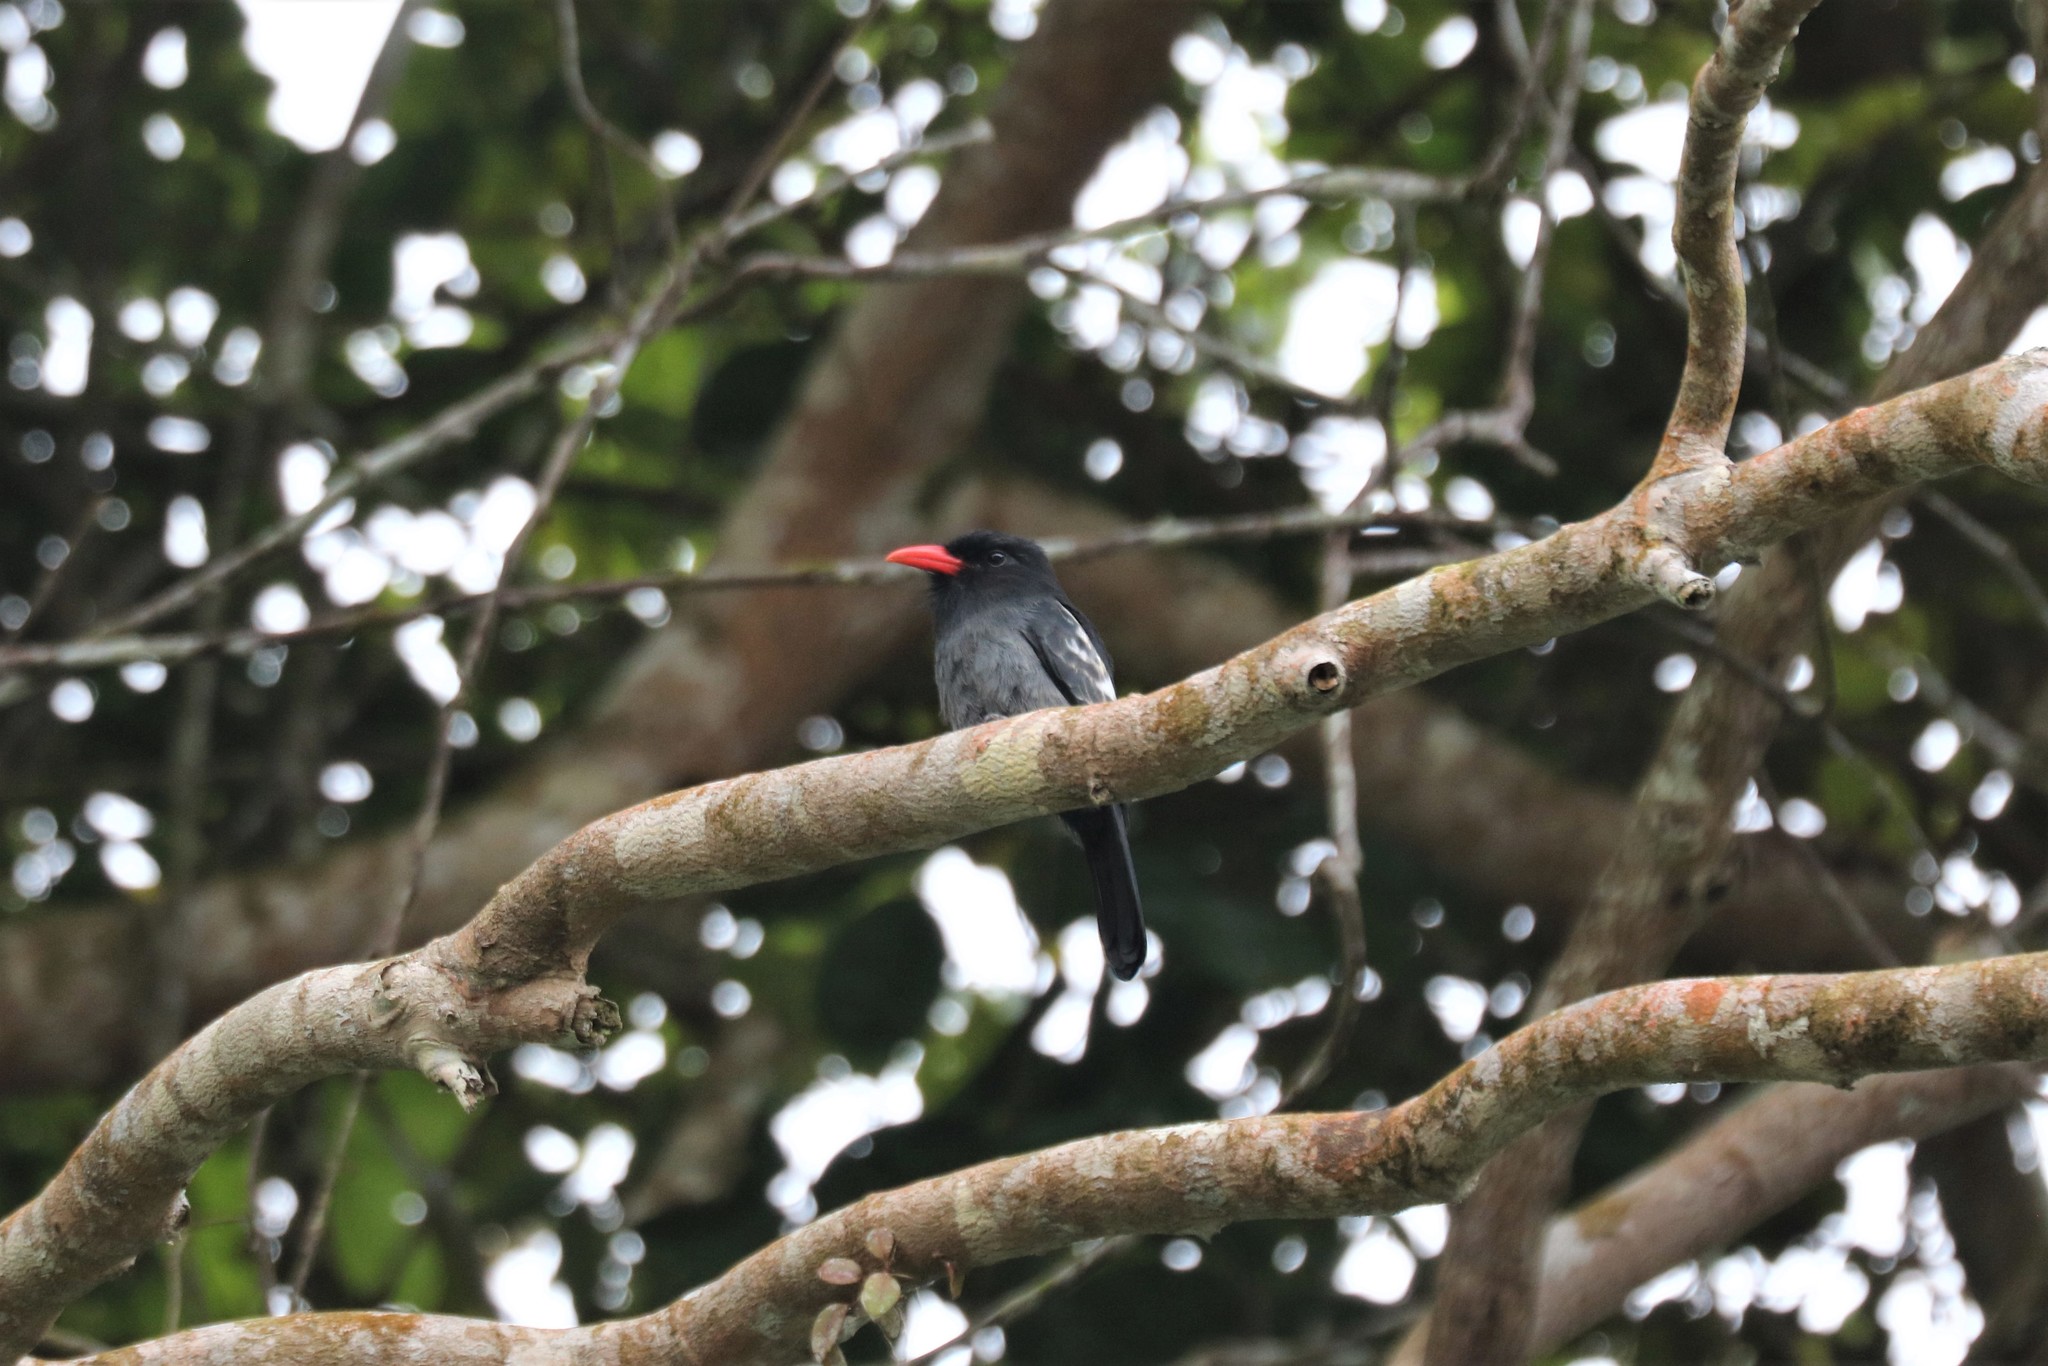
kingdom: Animalia
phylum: Chordata
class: Aves
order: Piciformes
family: Bucconidae
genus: Monasa
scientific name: Monasa atra
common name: Black nunbird
